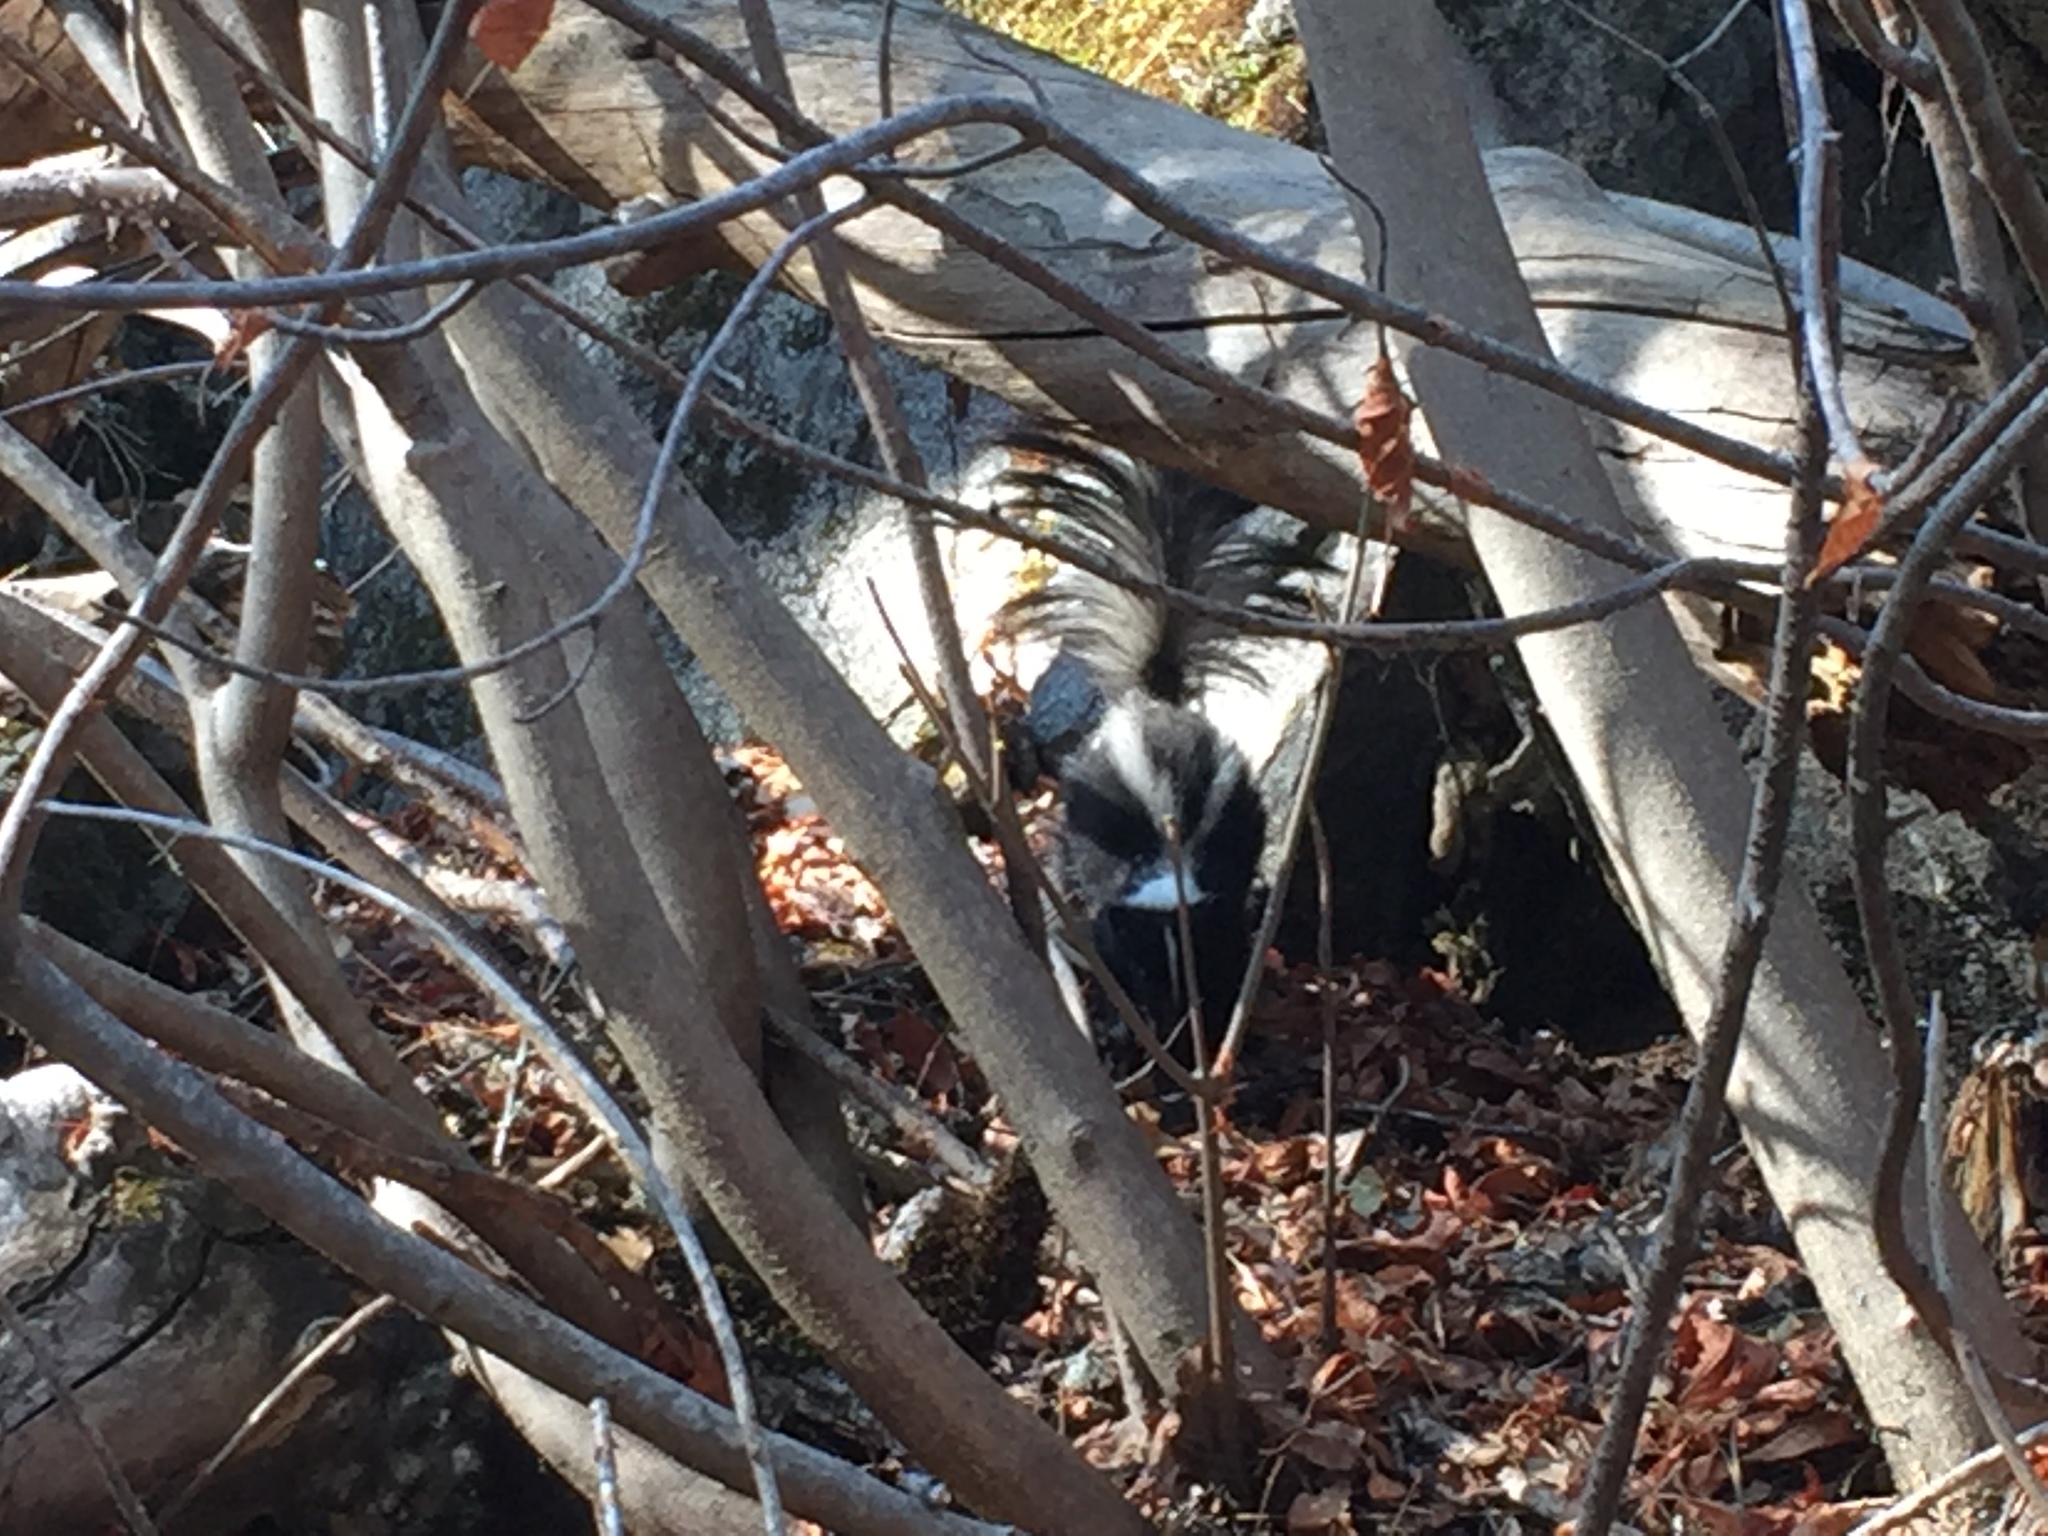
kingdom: Animalia
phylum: Chordata
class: Mammalia
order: Carnivora
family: Mephitidae
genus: Mephitis
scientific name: Mephitis mephitis
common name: Striped skunk
